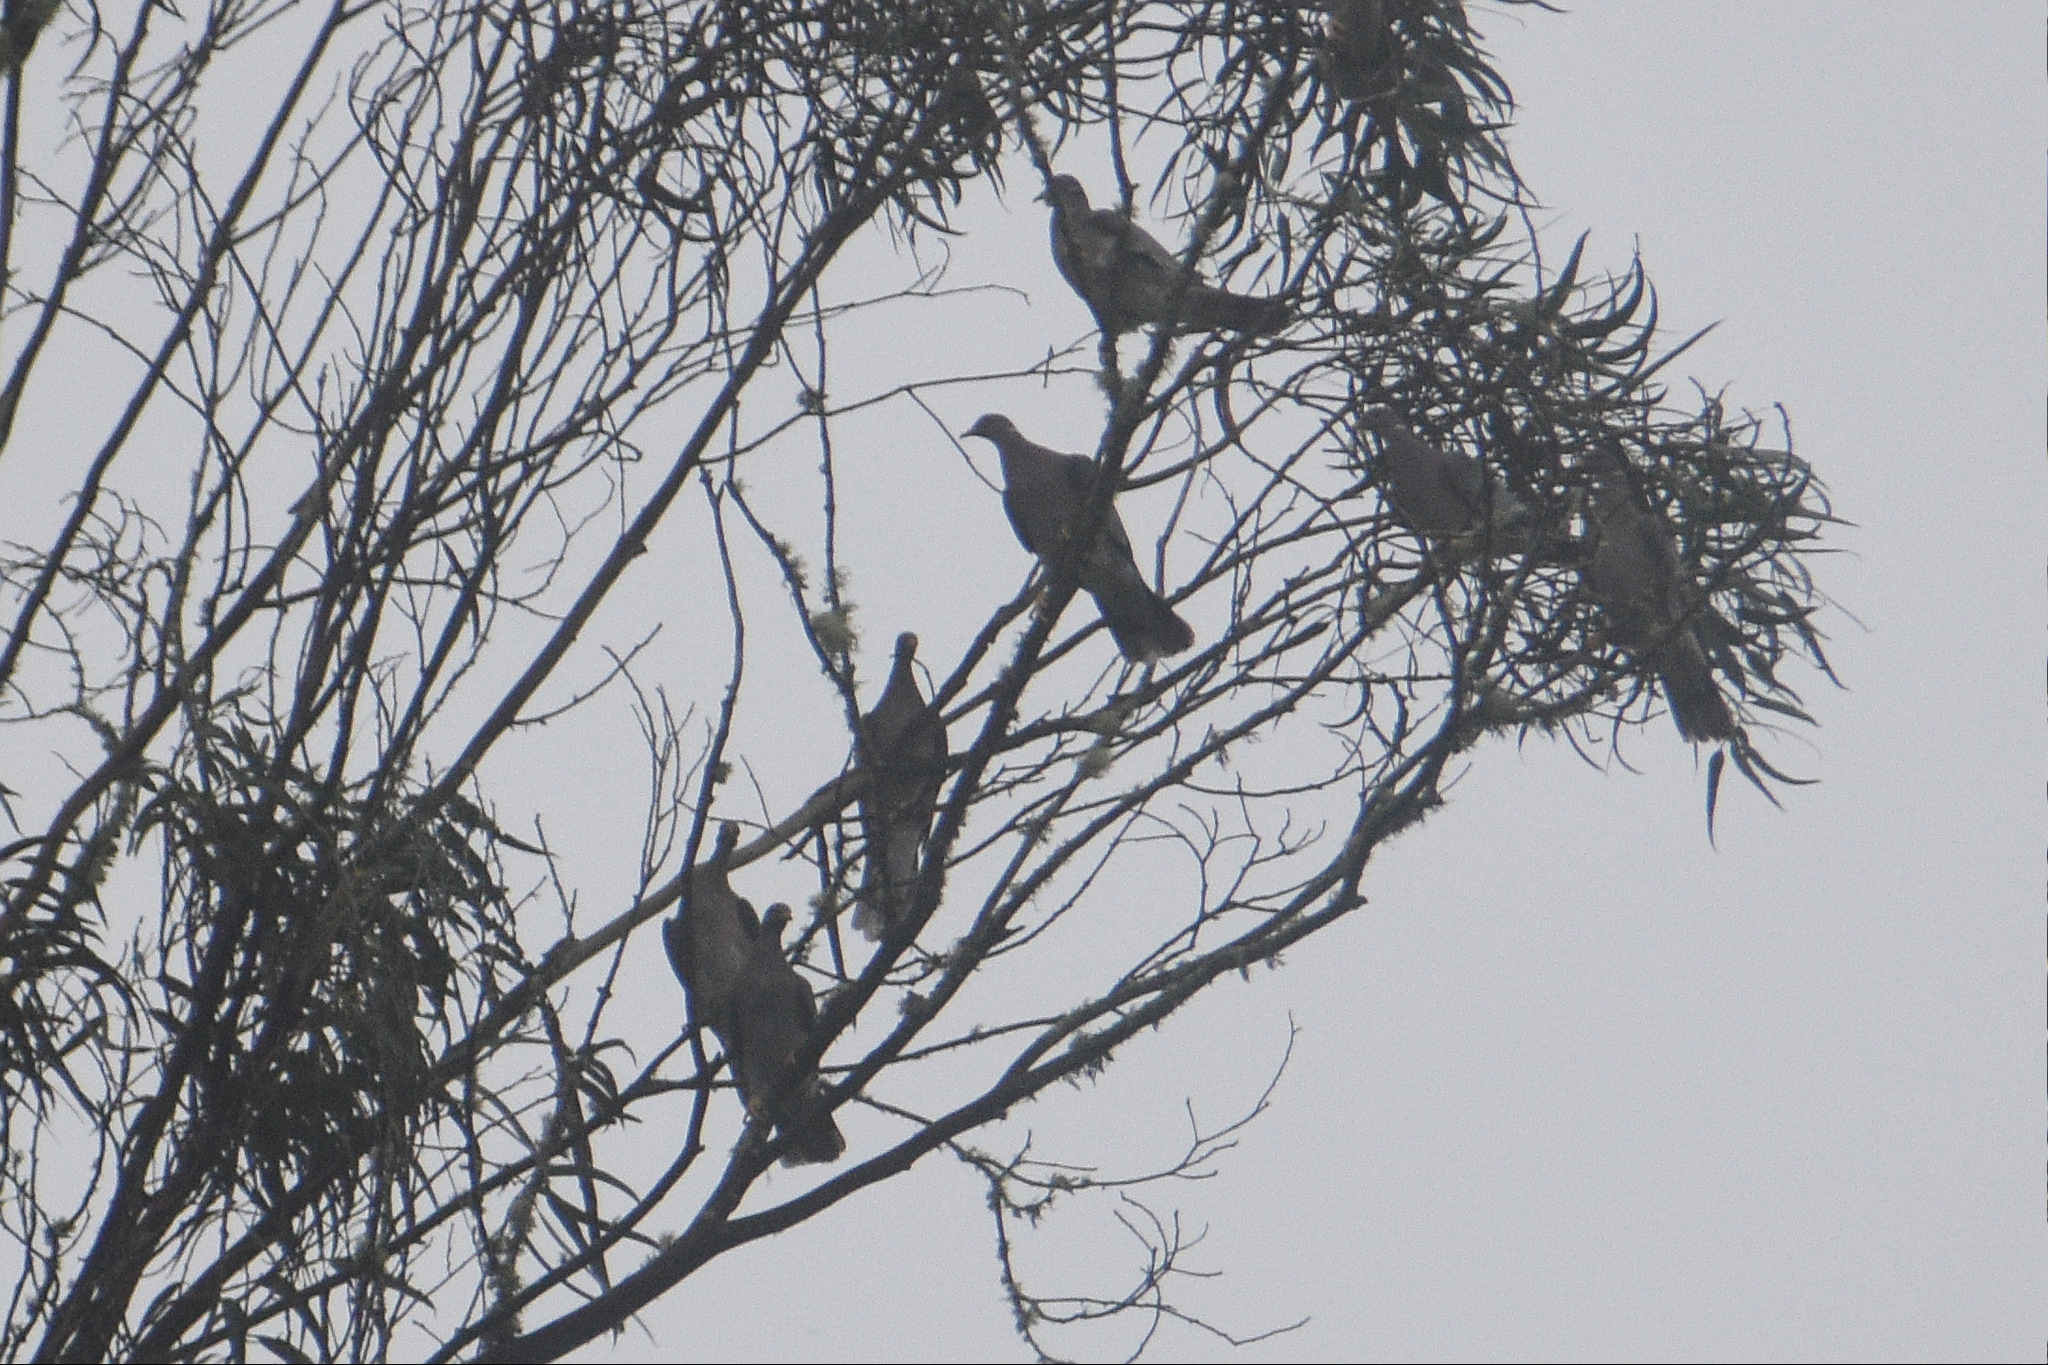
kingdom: Animalia
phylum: Chordata
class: Aves
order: Columbiformes
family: Columbidae
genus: Patagioenas
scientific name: Patagioenas fasciata
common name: Band-tailed pigeon
